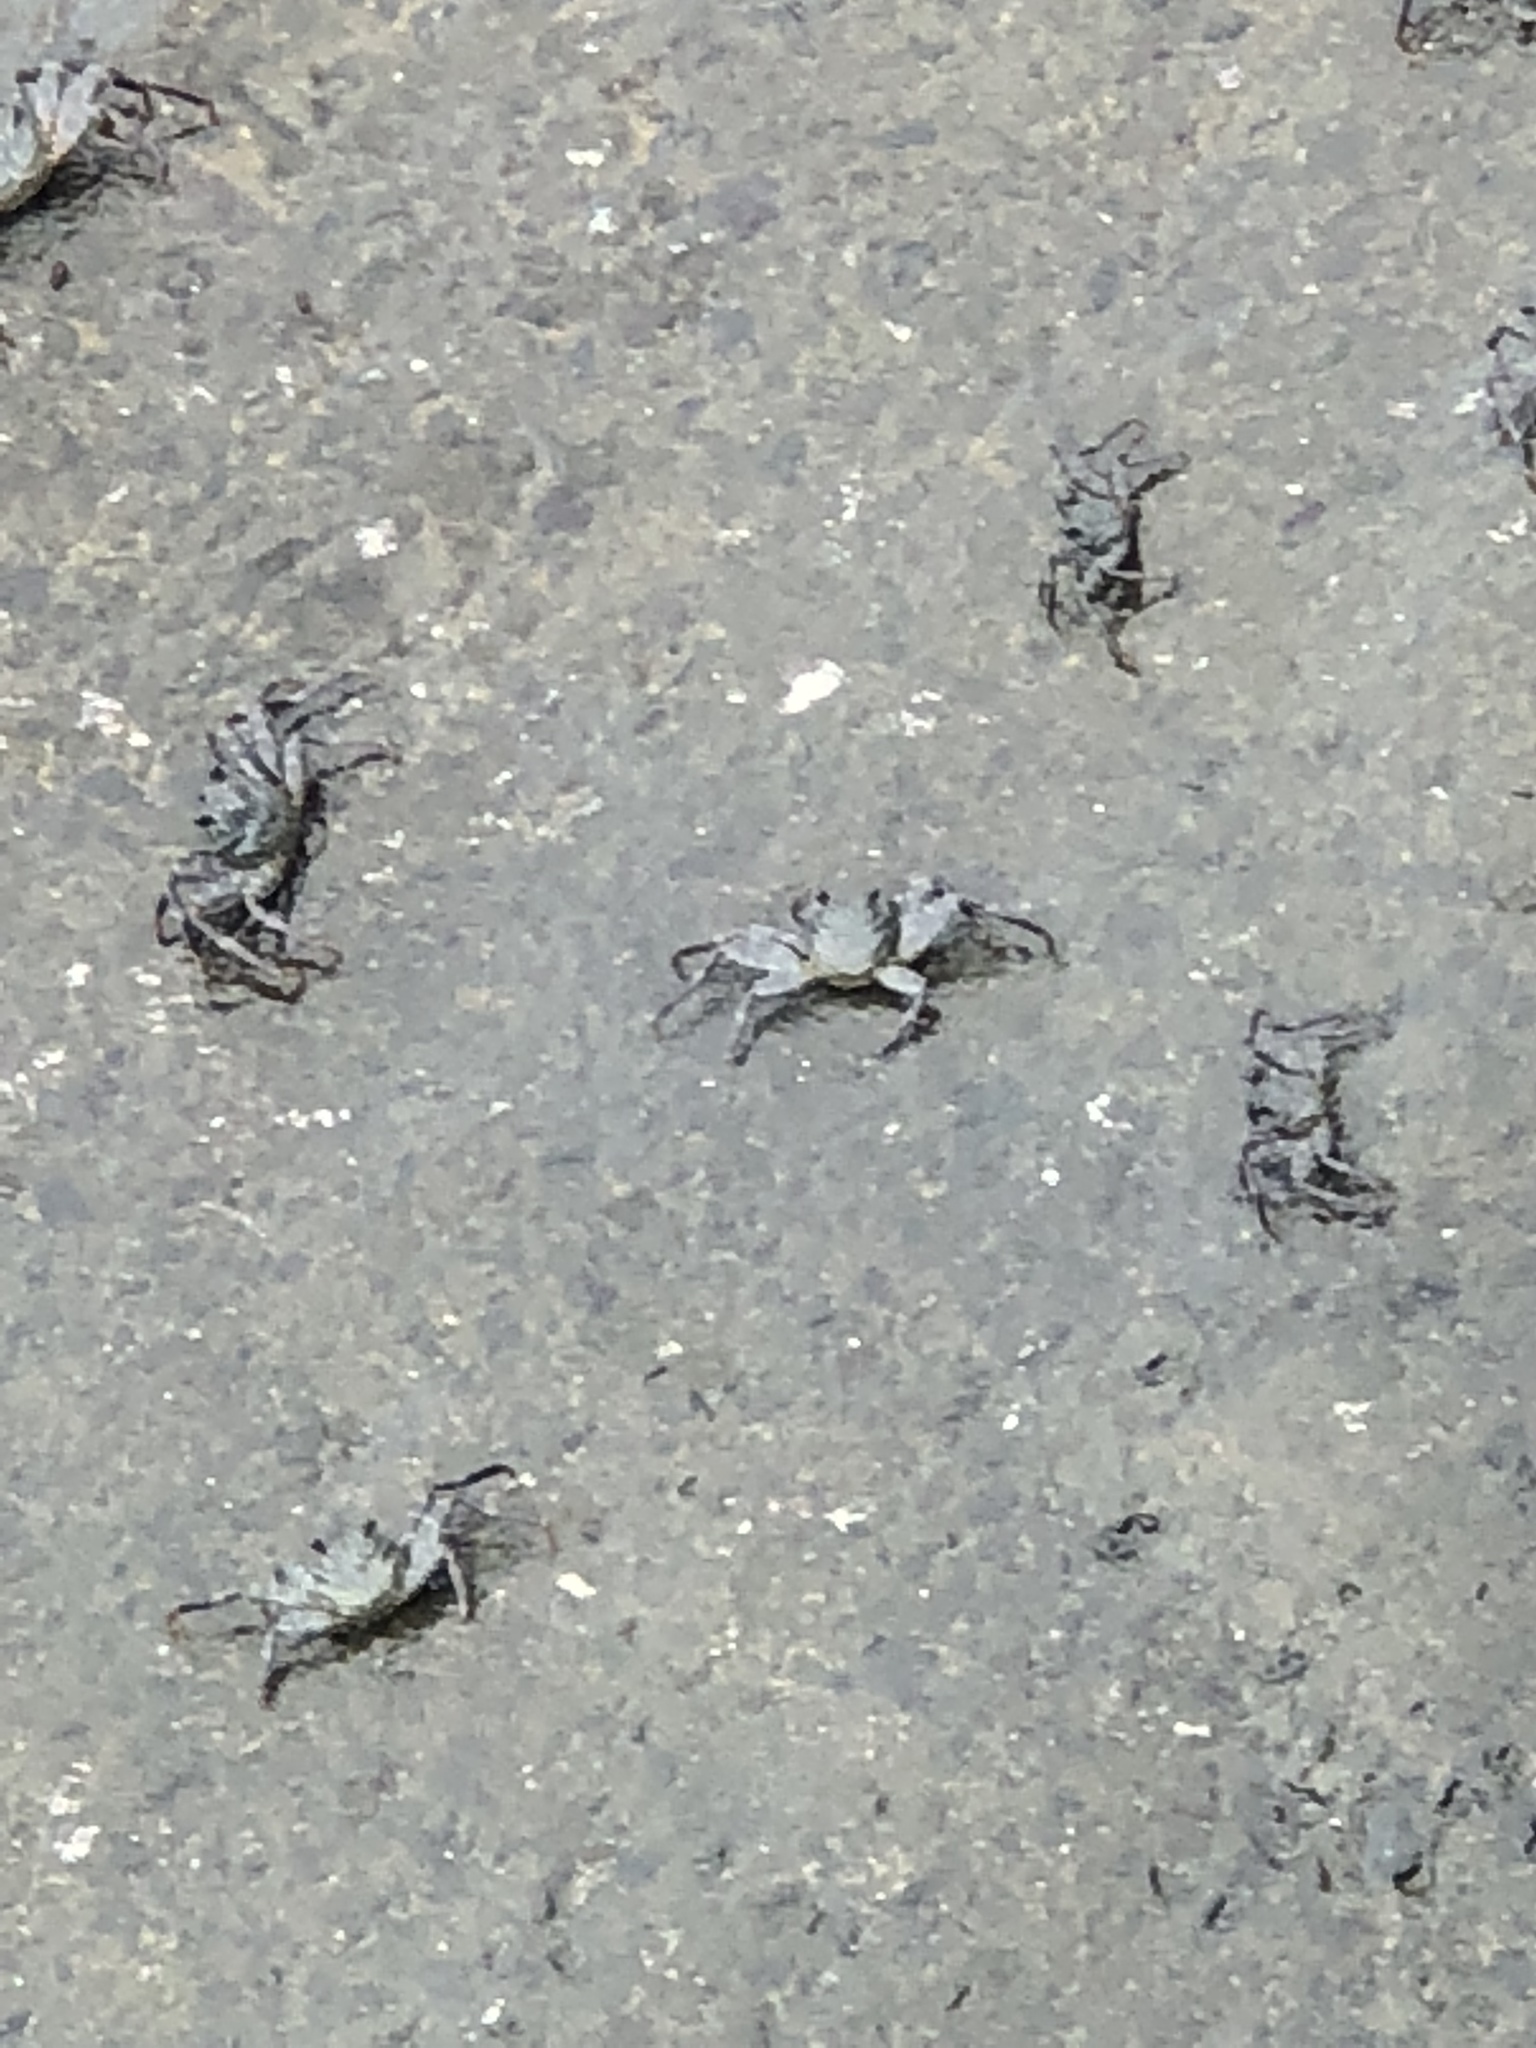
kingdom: Animalia
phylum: Arthropoda
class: Malacostraca
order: Decapoda
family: Grapsidae
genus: Grapsus
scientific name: Grapsus tenuicrustatus
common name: Natal lightfoot crab
